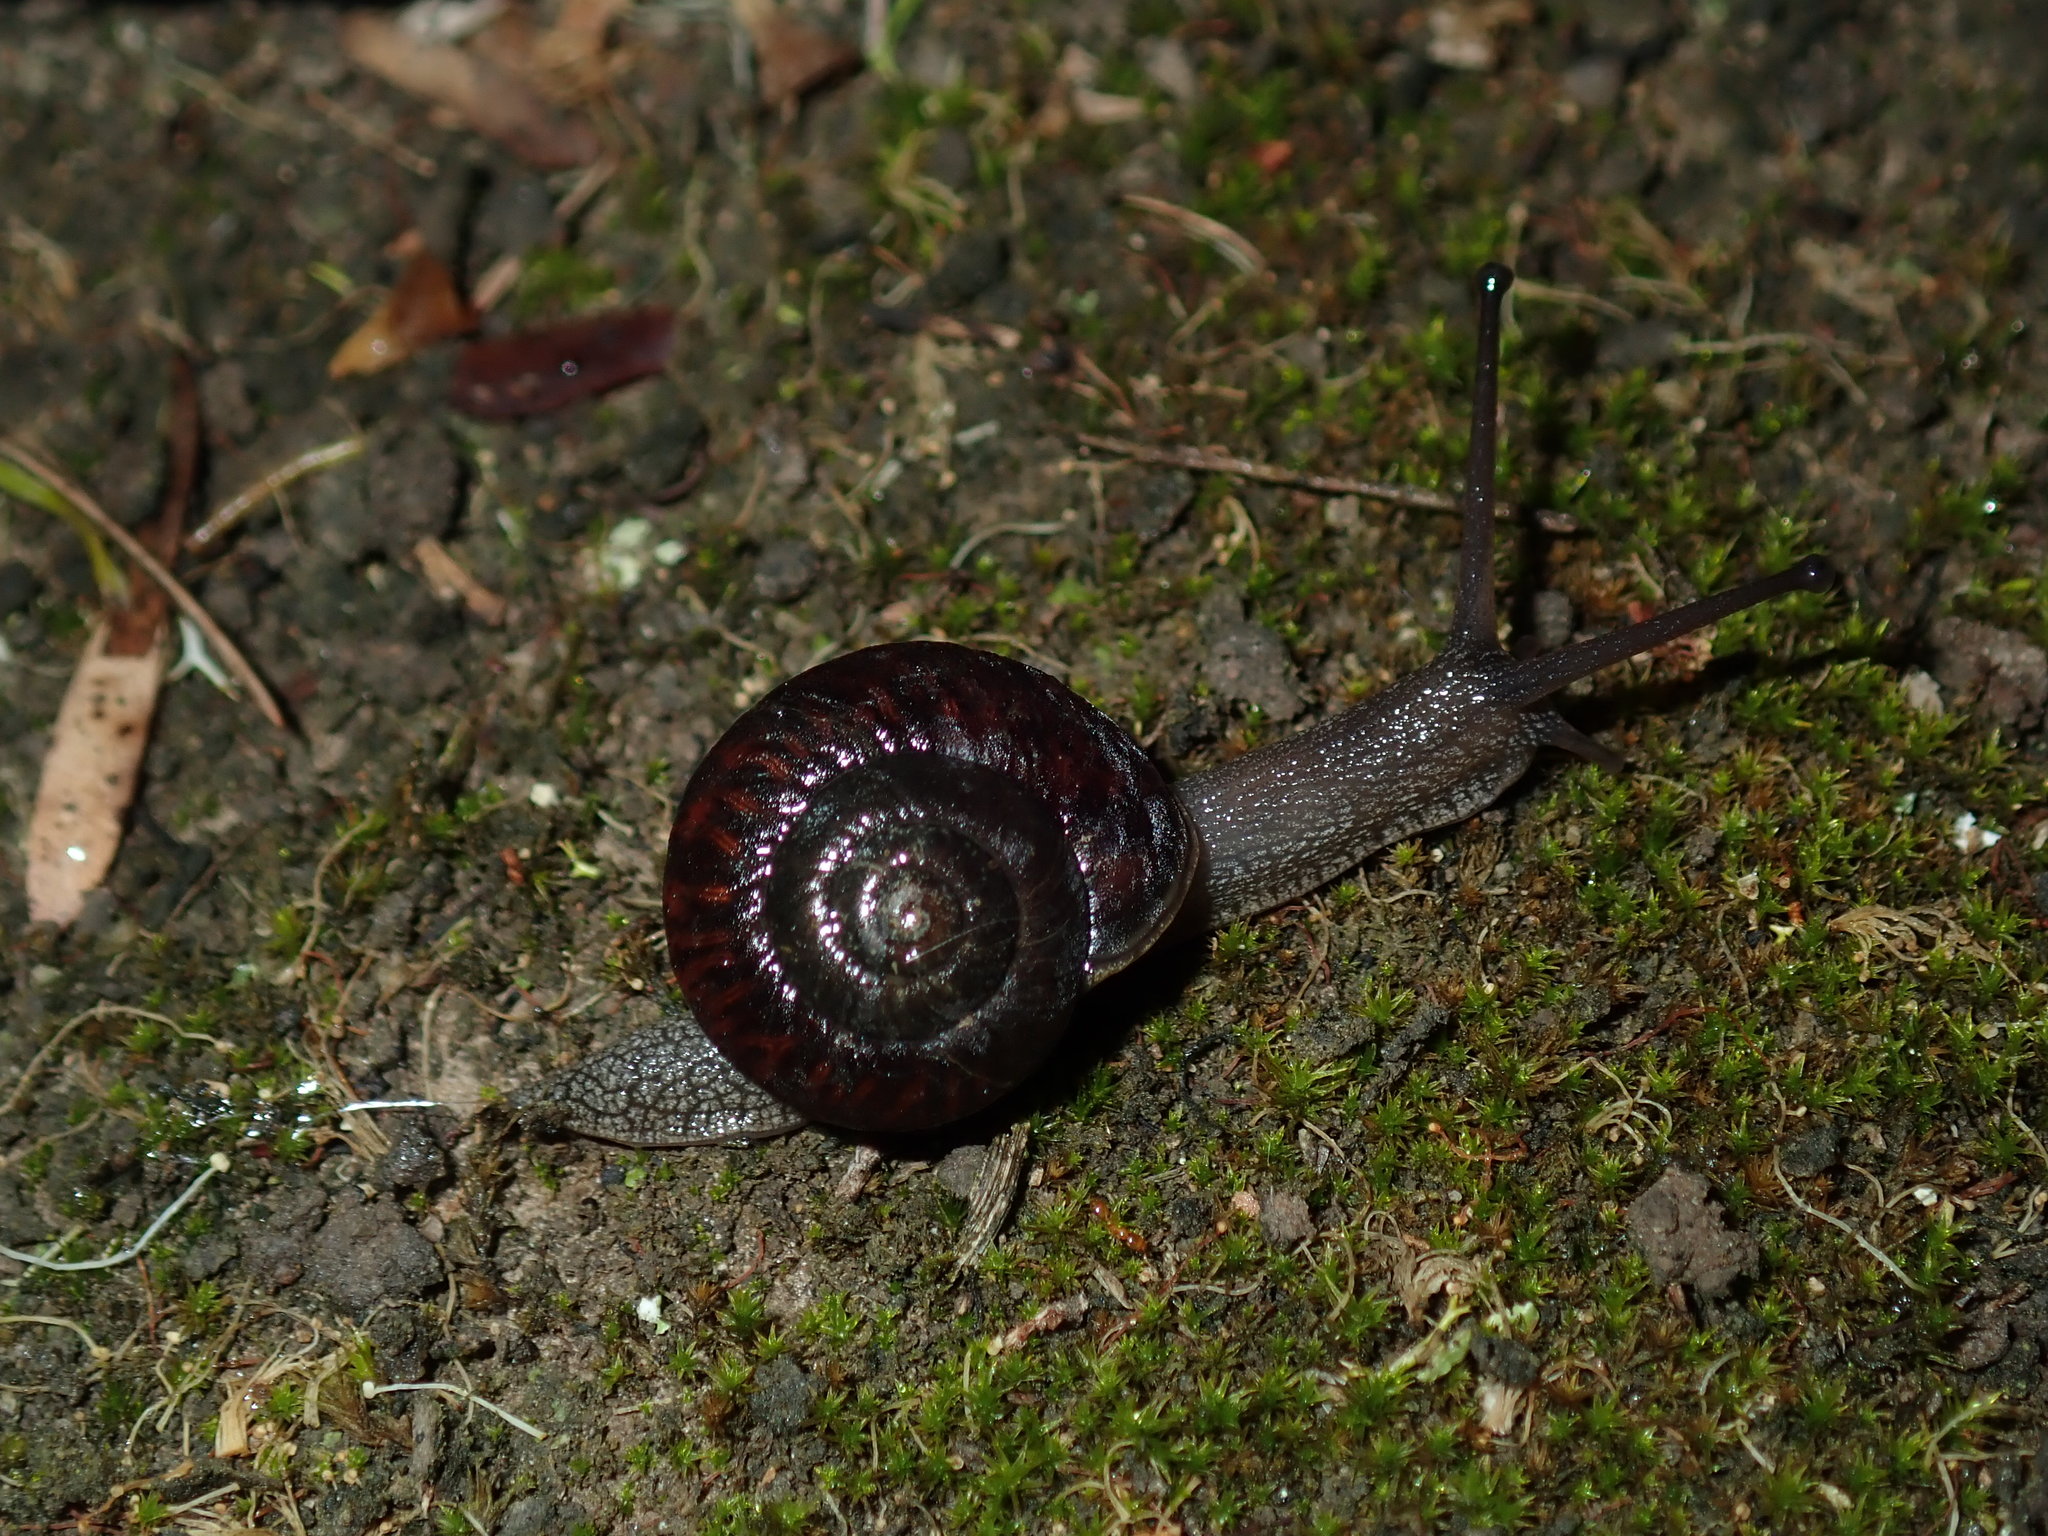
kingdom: Animalia
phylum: Mollusca
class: Gastropoda
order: Stylommatophora
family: Camaenidae
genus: Sauroconcha
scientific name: Sauroconcha sheai
